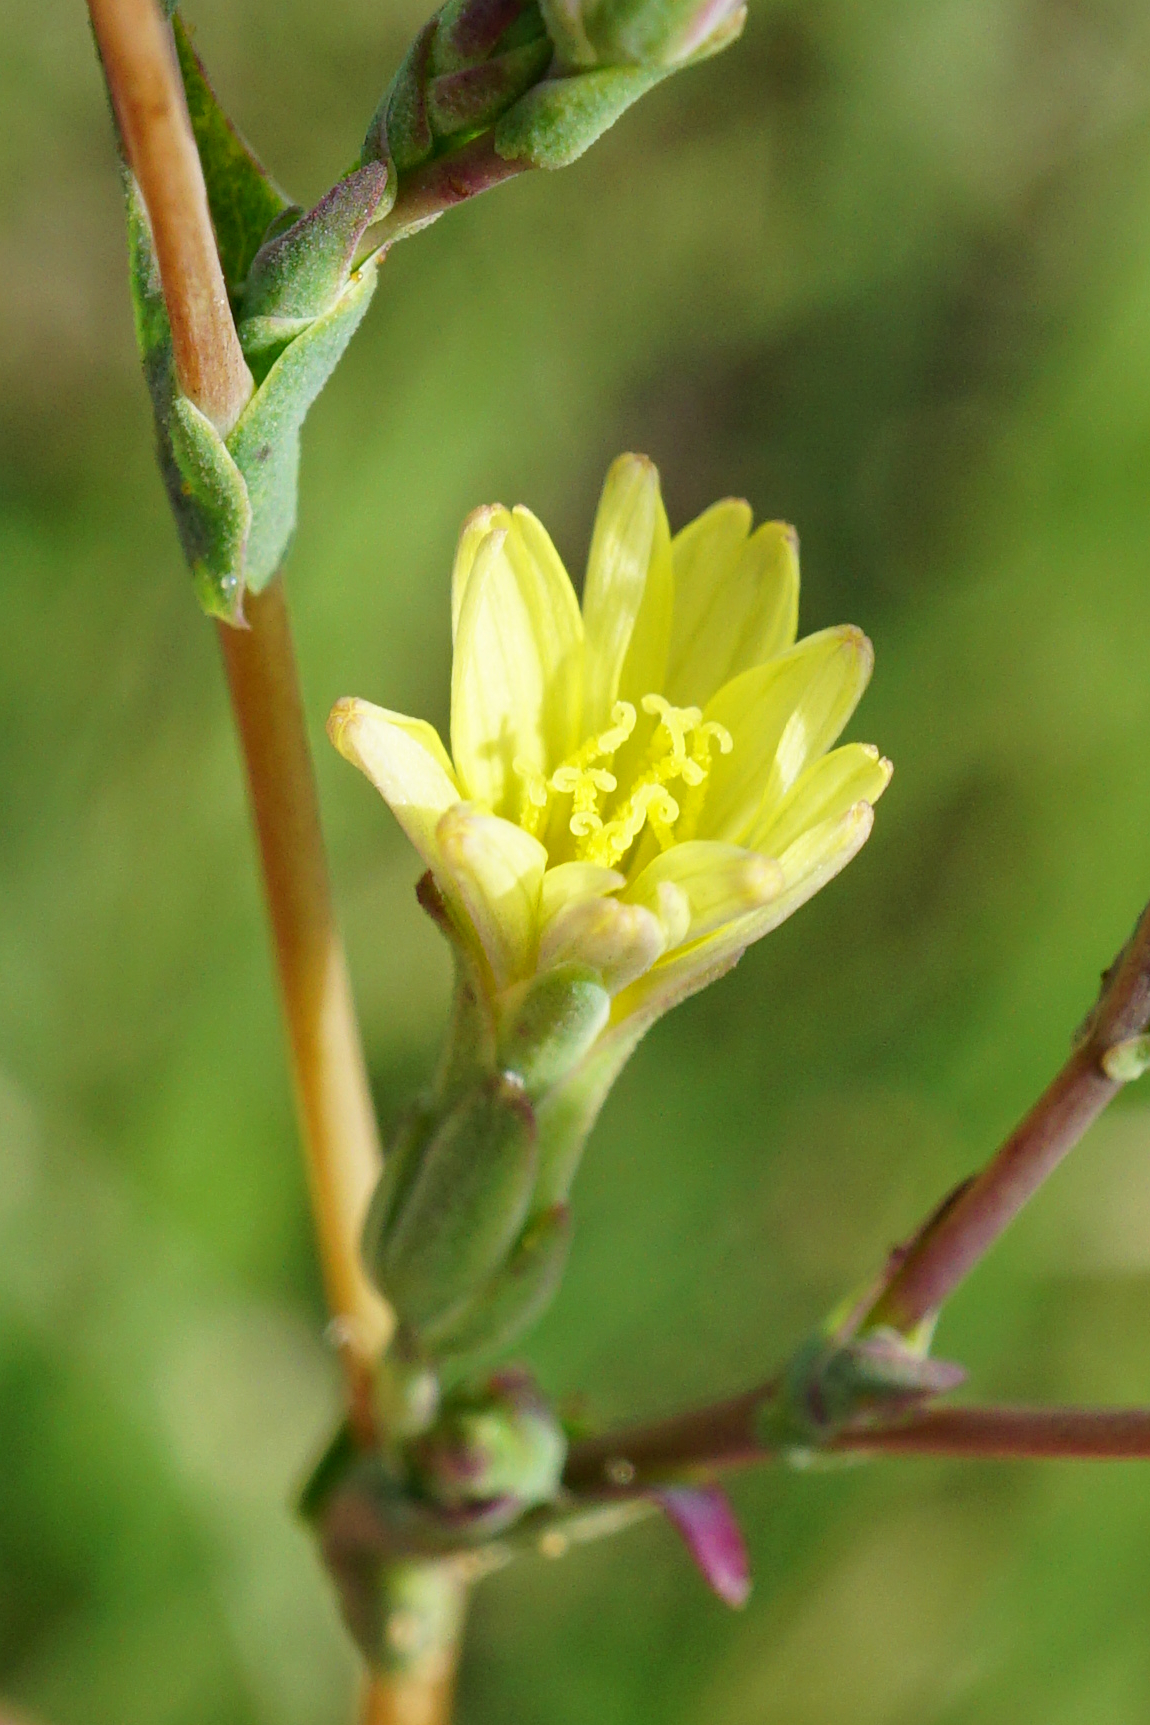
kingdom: Plantae
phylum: Tracheophyta
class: Magnoliopsida
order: Asterales
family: Asteraceae
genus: Lactuca
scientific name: Lactuca serriola
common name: Prickly lettuce
